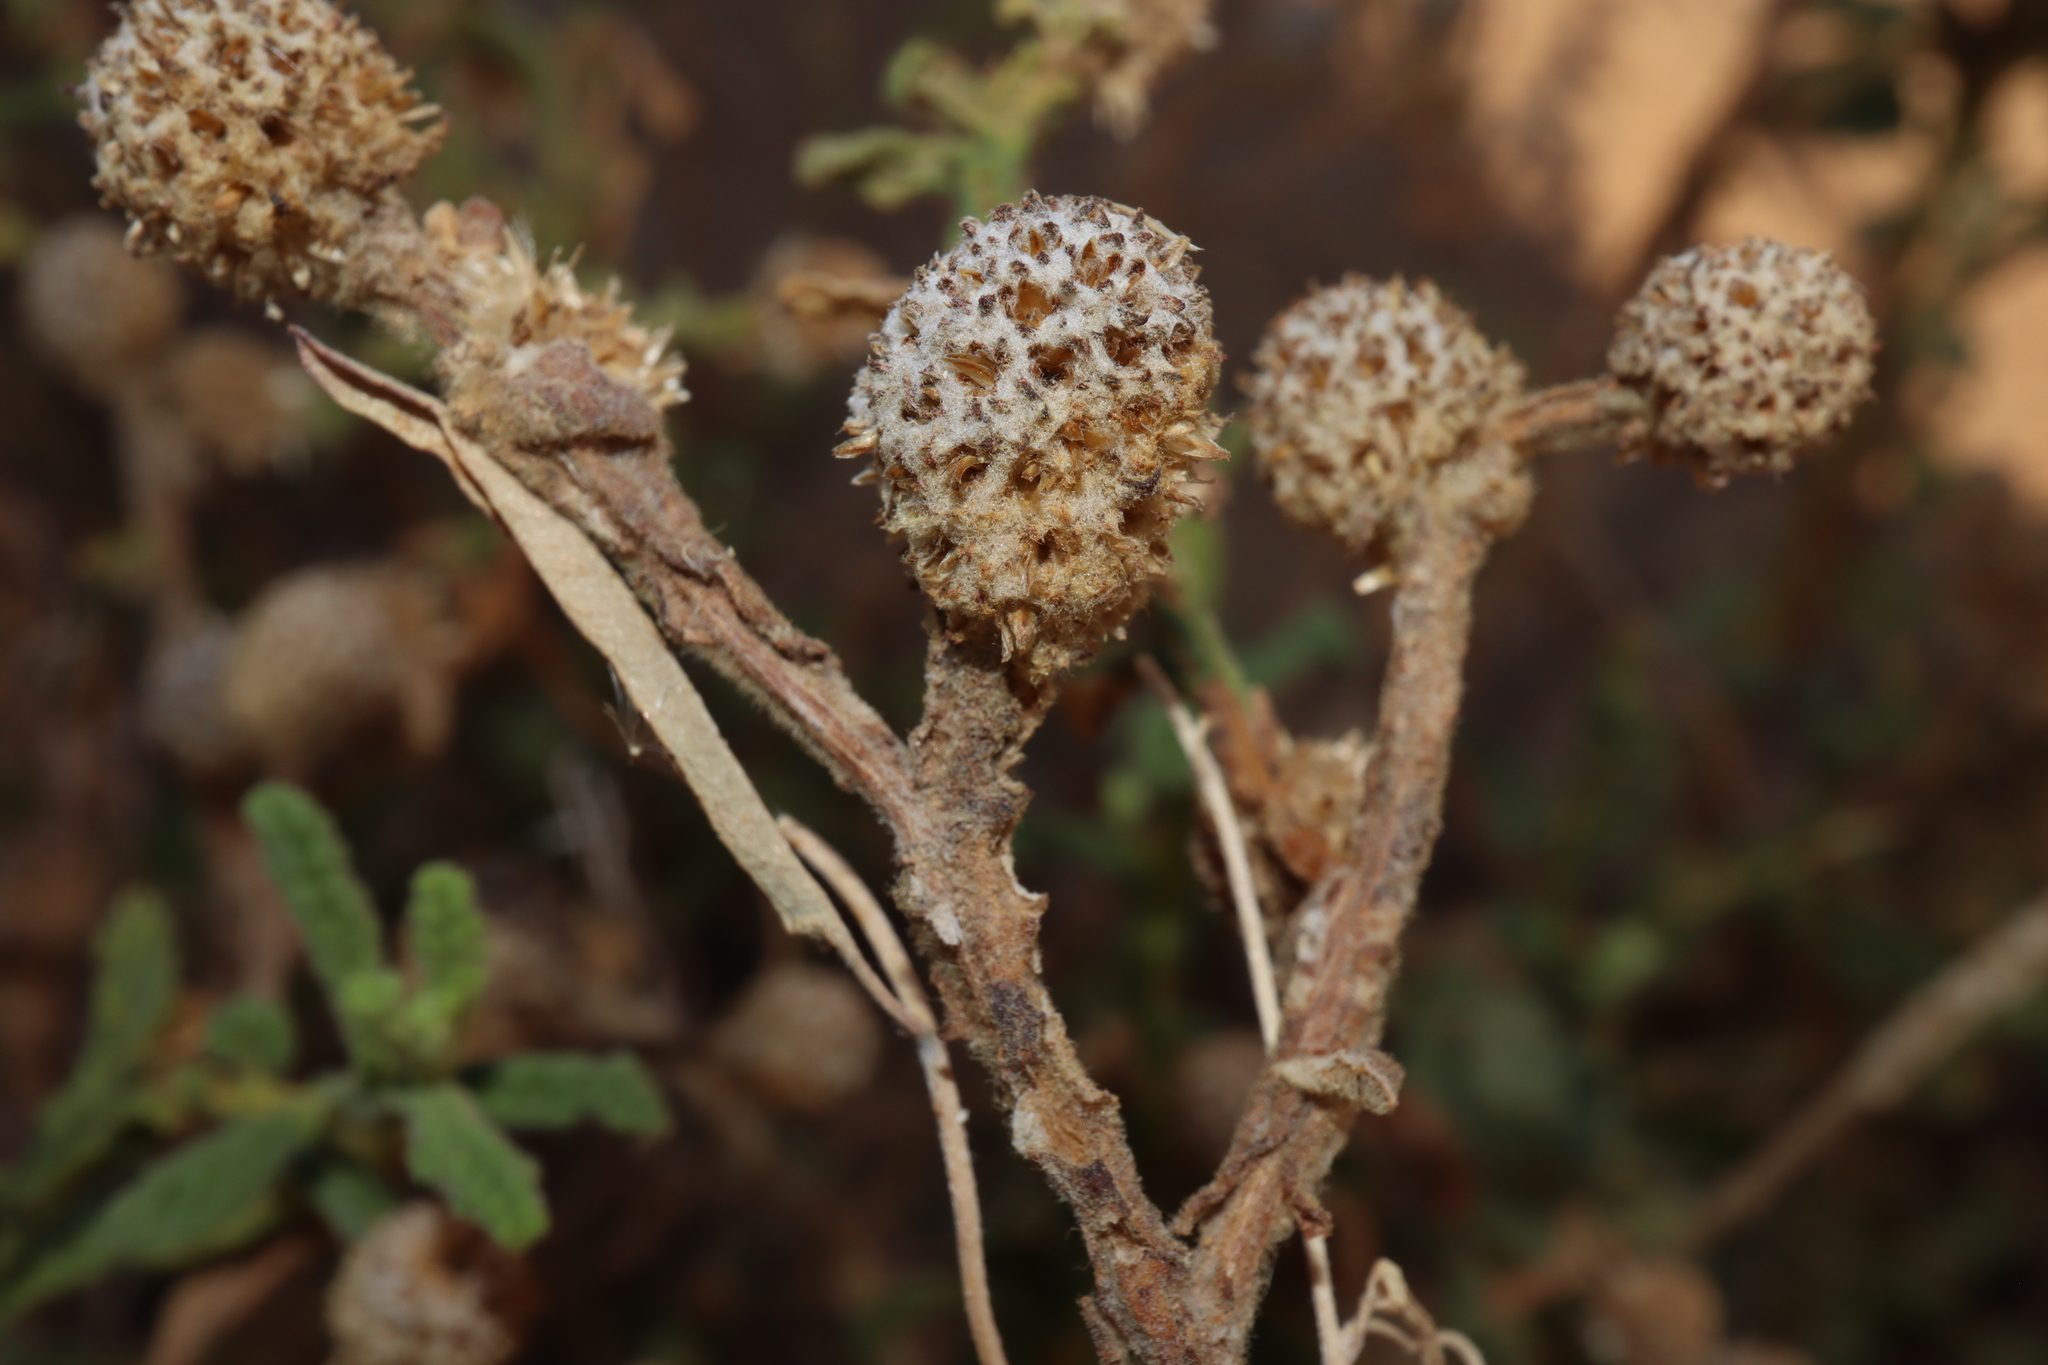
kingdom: Plantae
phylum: Tracheophyta
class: Magnoliopsida
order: Asterales
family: Asteraceae
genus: Pterocaulon
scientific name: Pterocaulon sphacelatum
